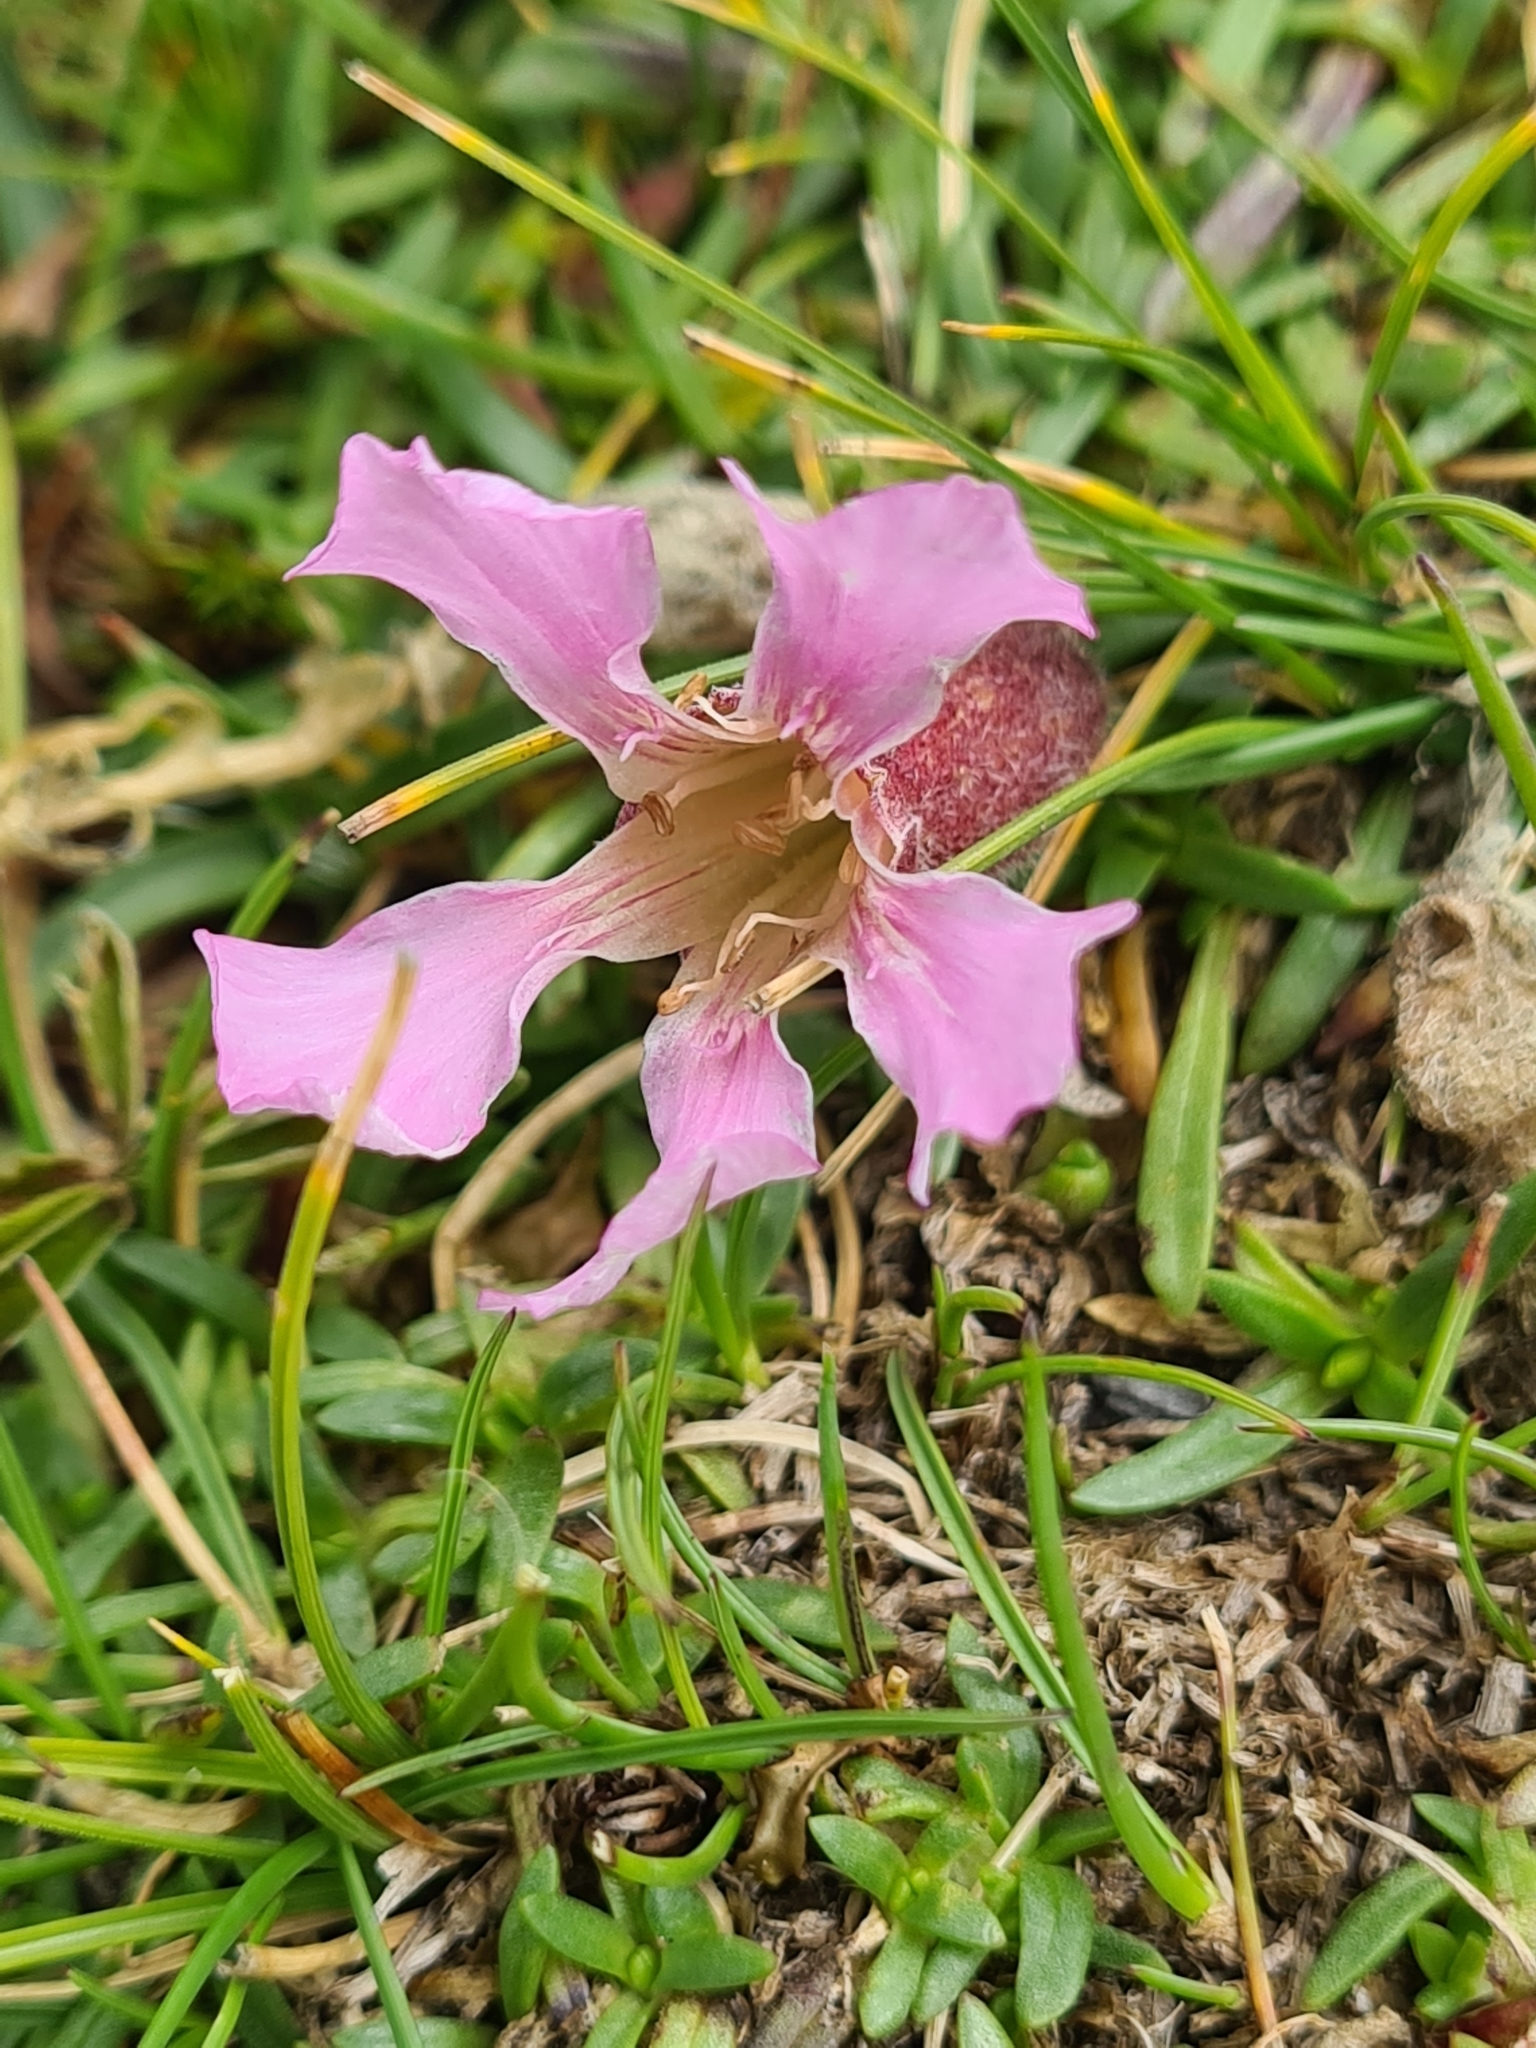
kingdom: Plantae
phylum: Tracheophyta
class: Magnoliopsida
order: Caryophyllales
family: Caryophyllaceae
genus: Saponaria
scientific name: Saponaria pumila
